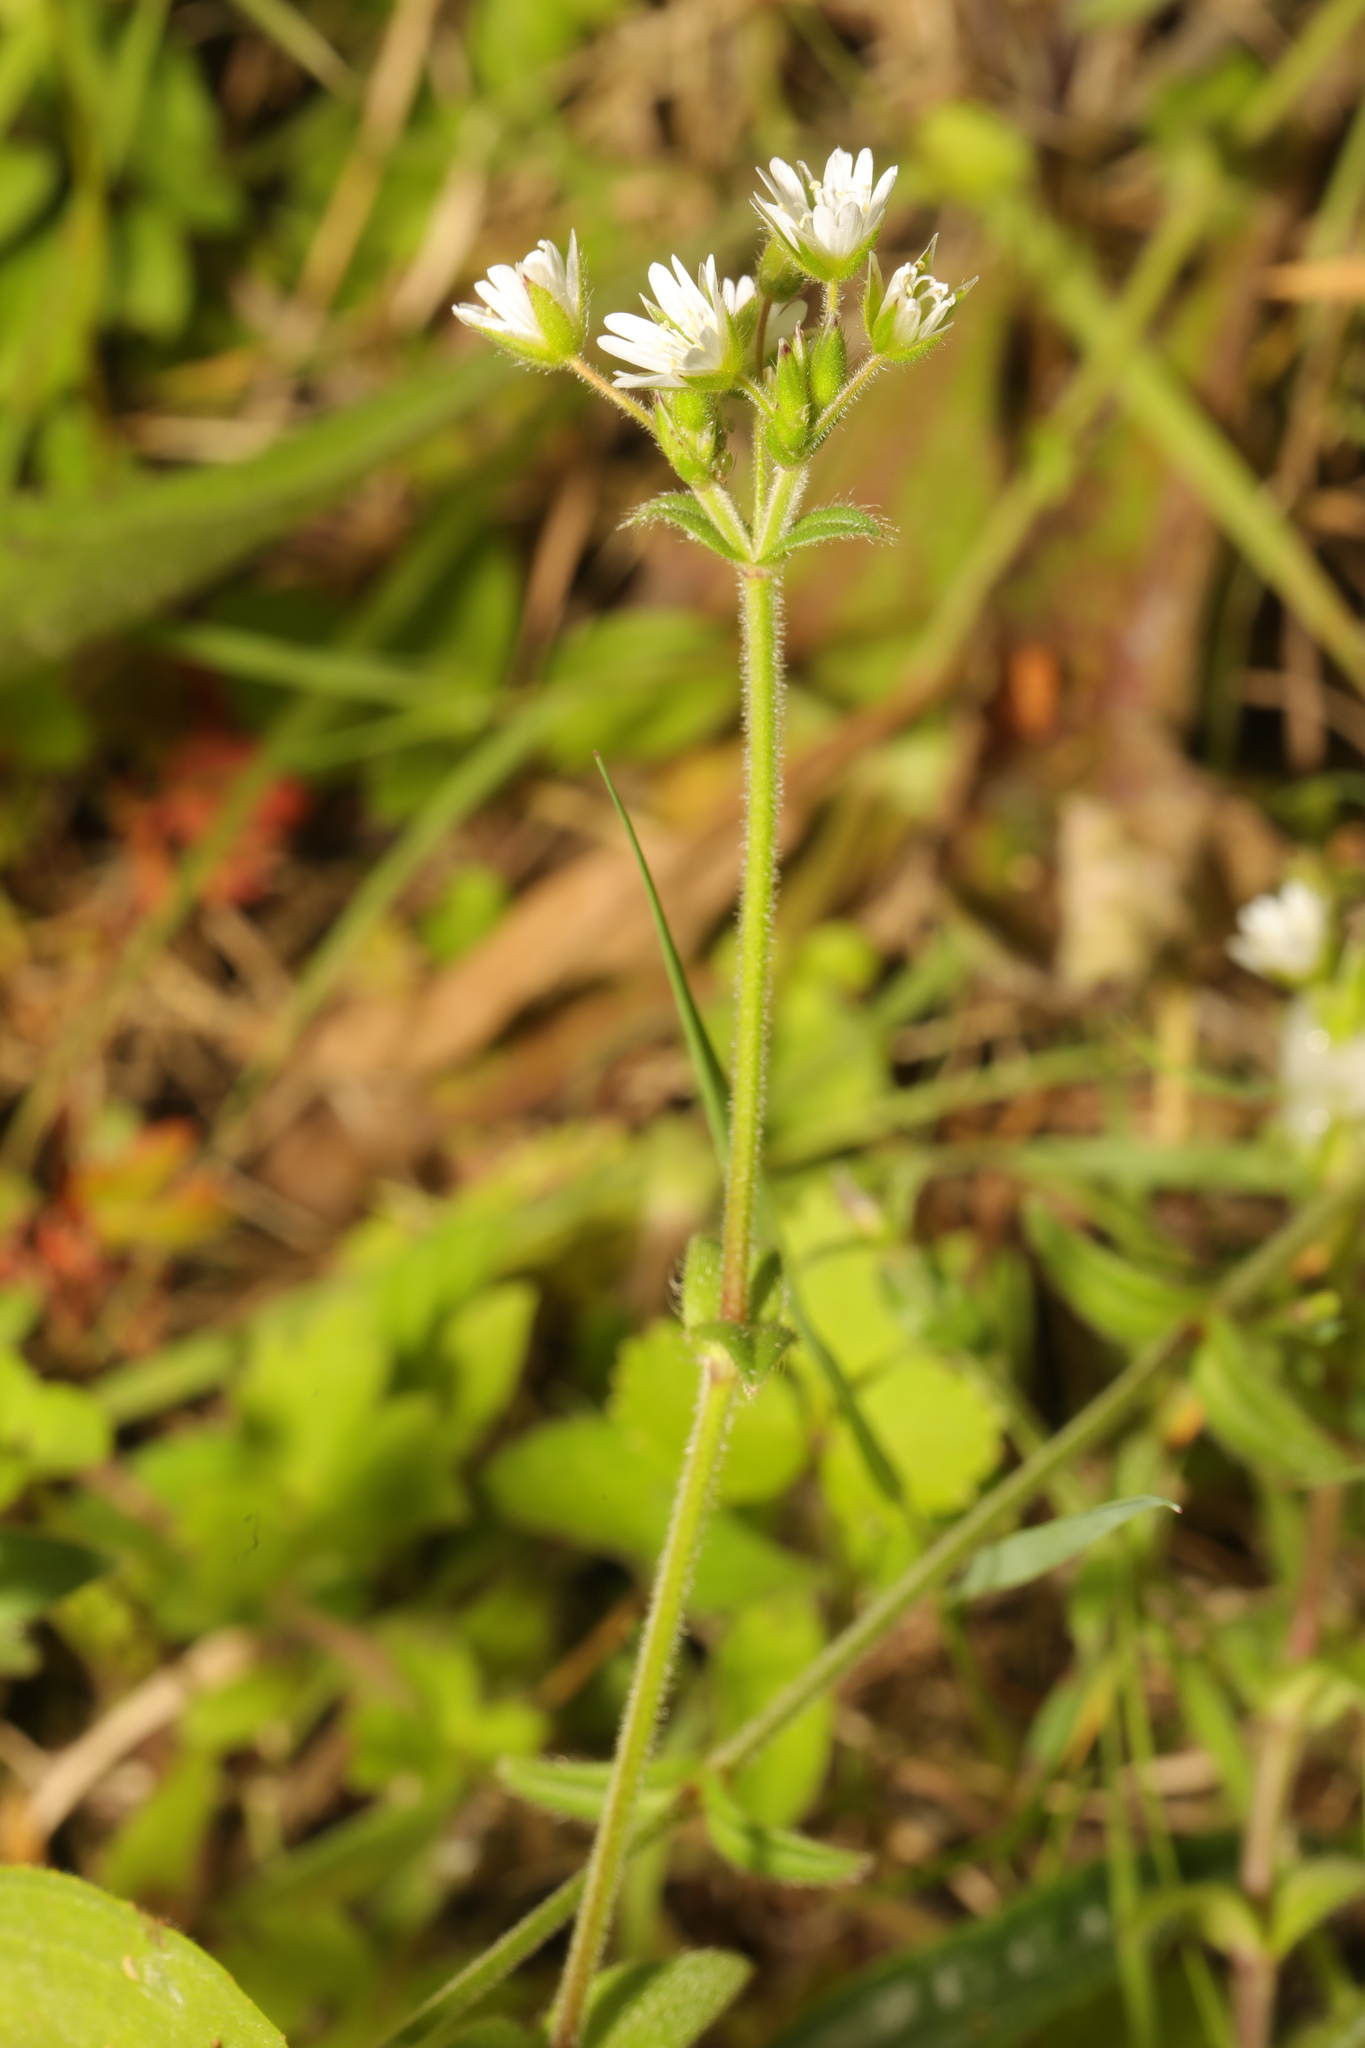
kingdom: Plantae
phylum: Tracheophyta
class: Magnoliopsida
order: Caryophyllales
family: Caryophyllaceae
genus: Cerastium
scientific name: Cerastium fontanum
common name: Common mouse-ear
